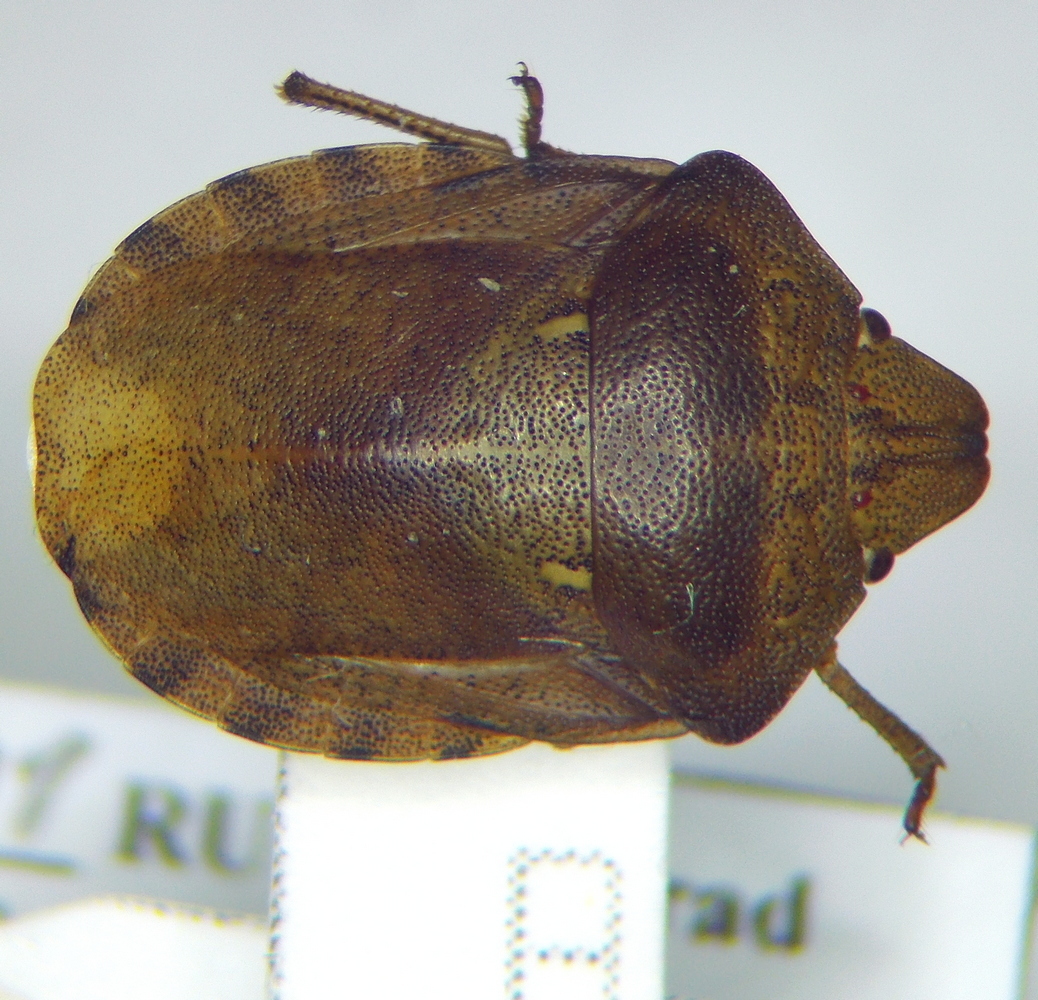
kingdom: Animalia
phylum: Arthropoda
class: Insecta
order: Hemiptera
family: Scutelleridae
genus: Eurygaster
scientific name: Eurygaster testudinaria
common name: Tortoise bug
